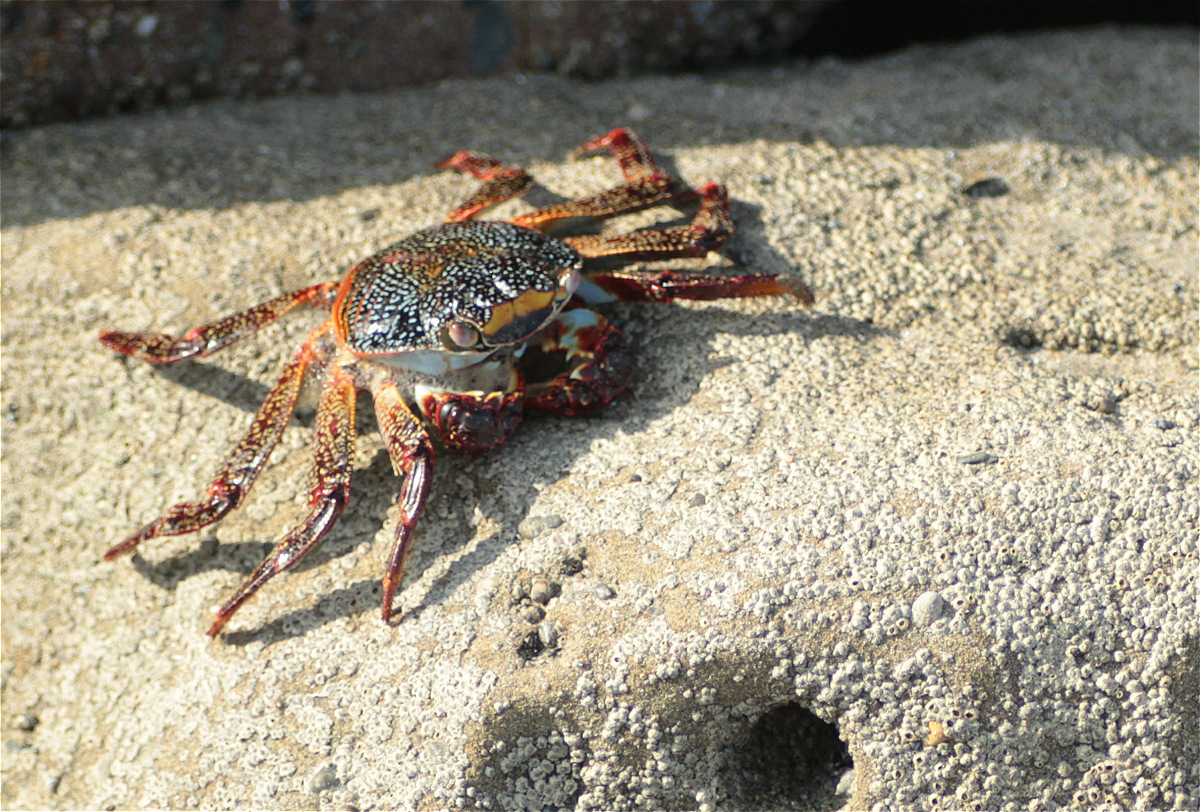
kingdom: Animalia
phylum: Arthropoda
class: Malacostraca
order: Decapoda
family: Grapsidae
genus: Grapsus
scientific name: Grapsus grapsus
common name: Sally lightfoot
